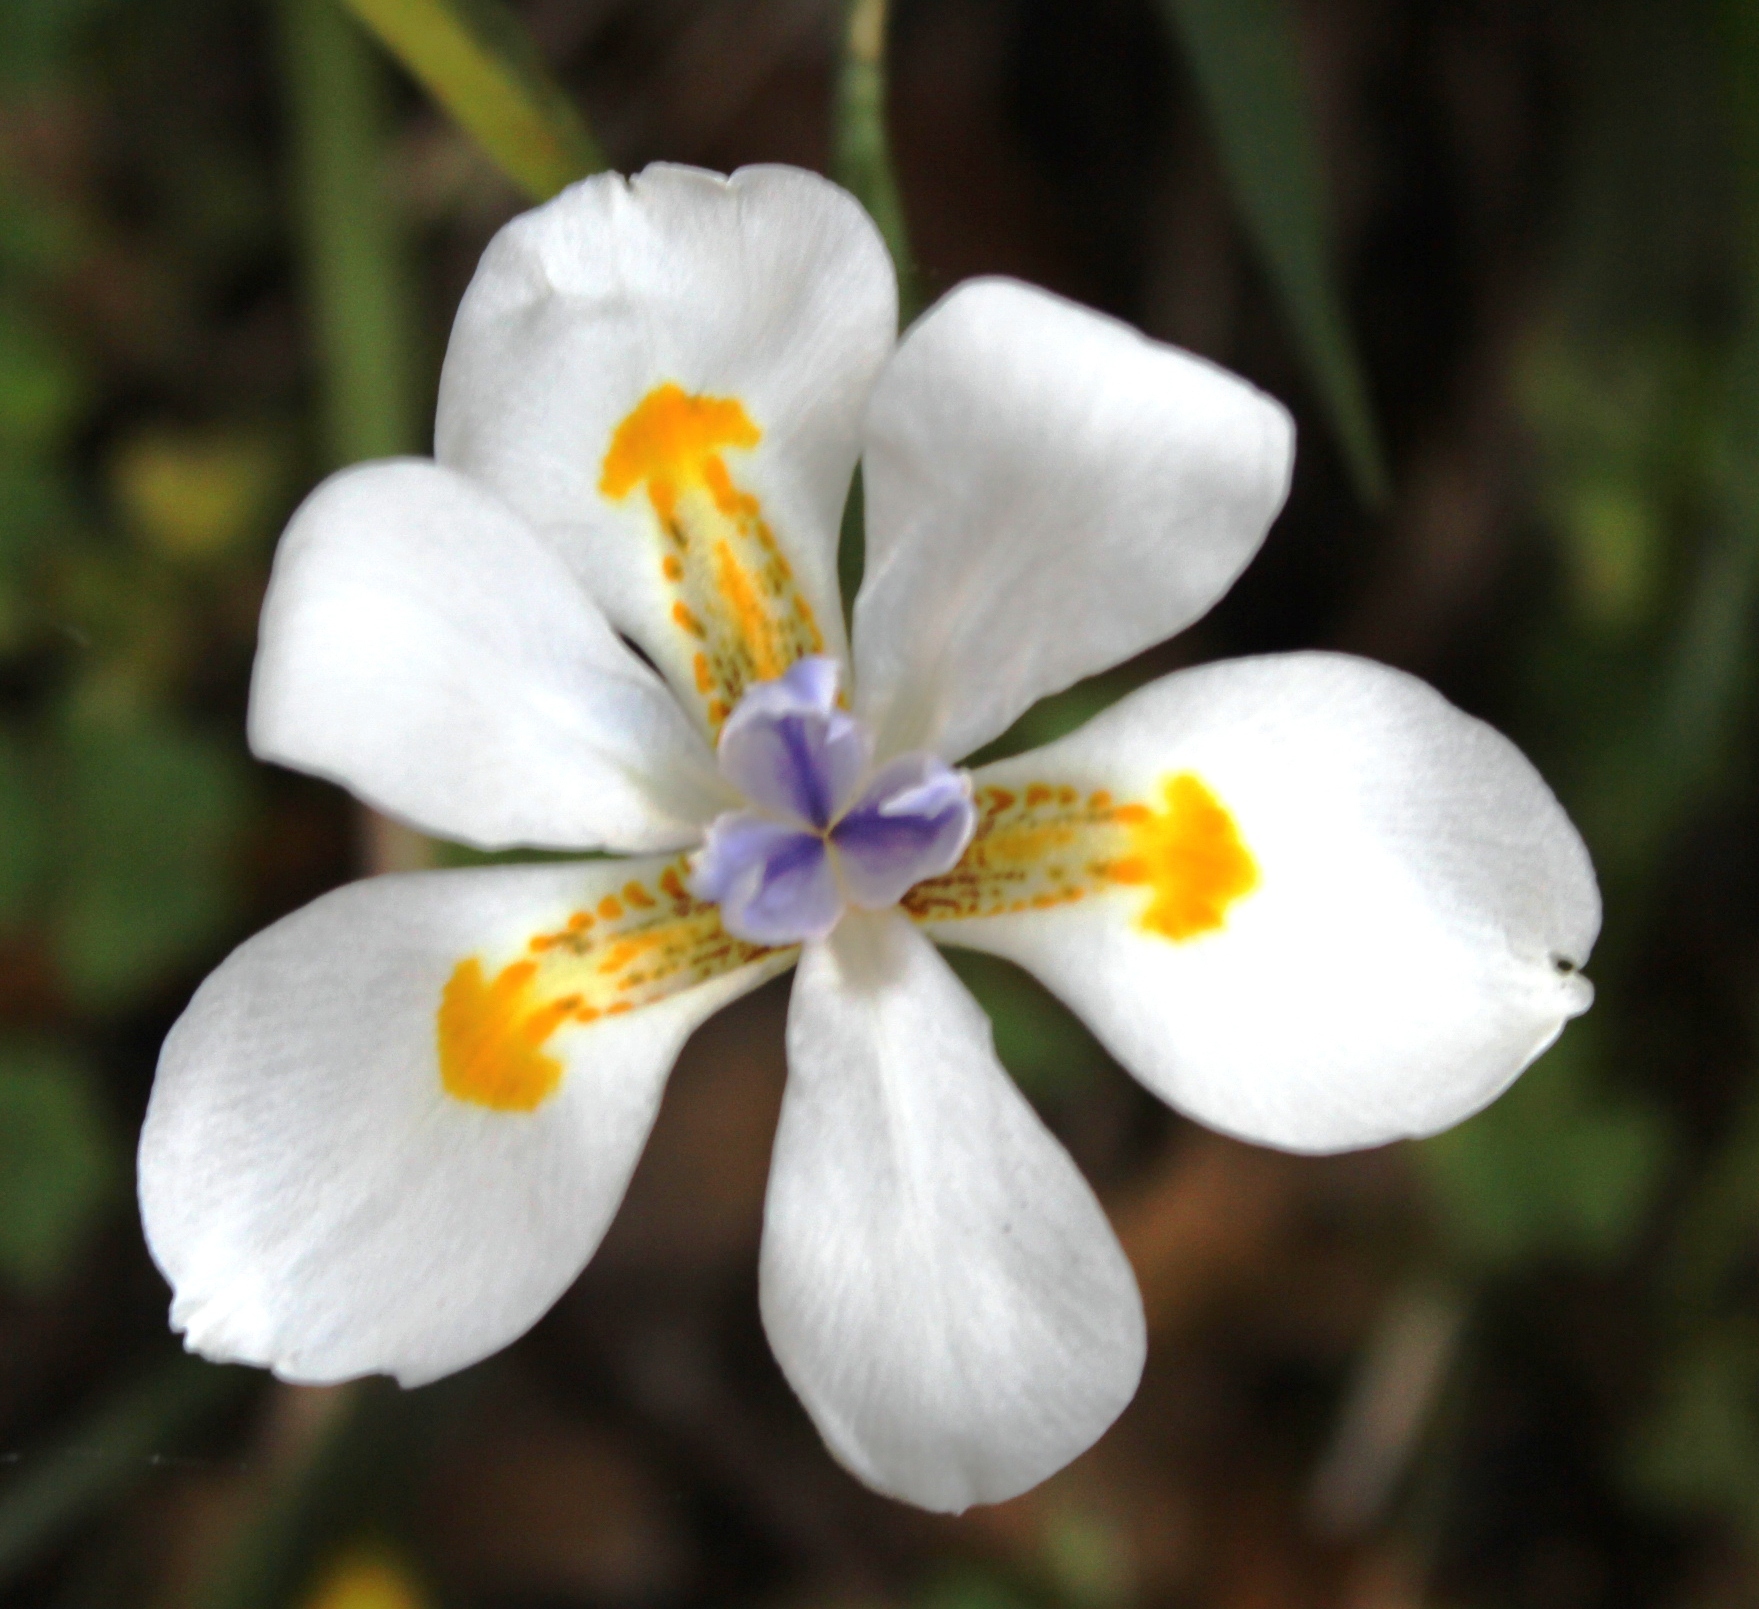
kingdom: Plantae
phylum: Tracheophyta
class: Liliopsida
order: Asparagales
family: Iridaceae
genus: Dietes
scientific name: Dietes iridioides
